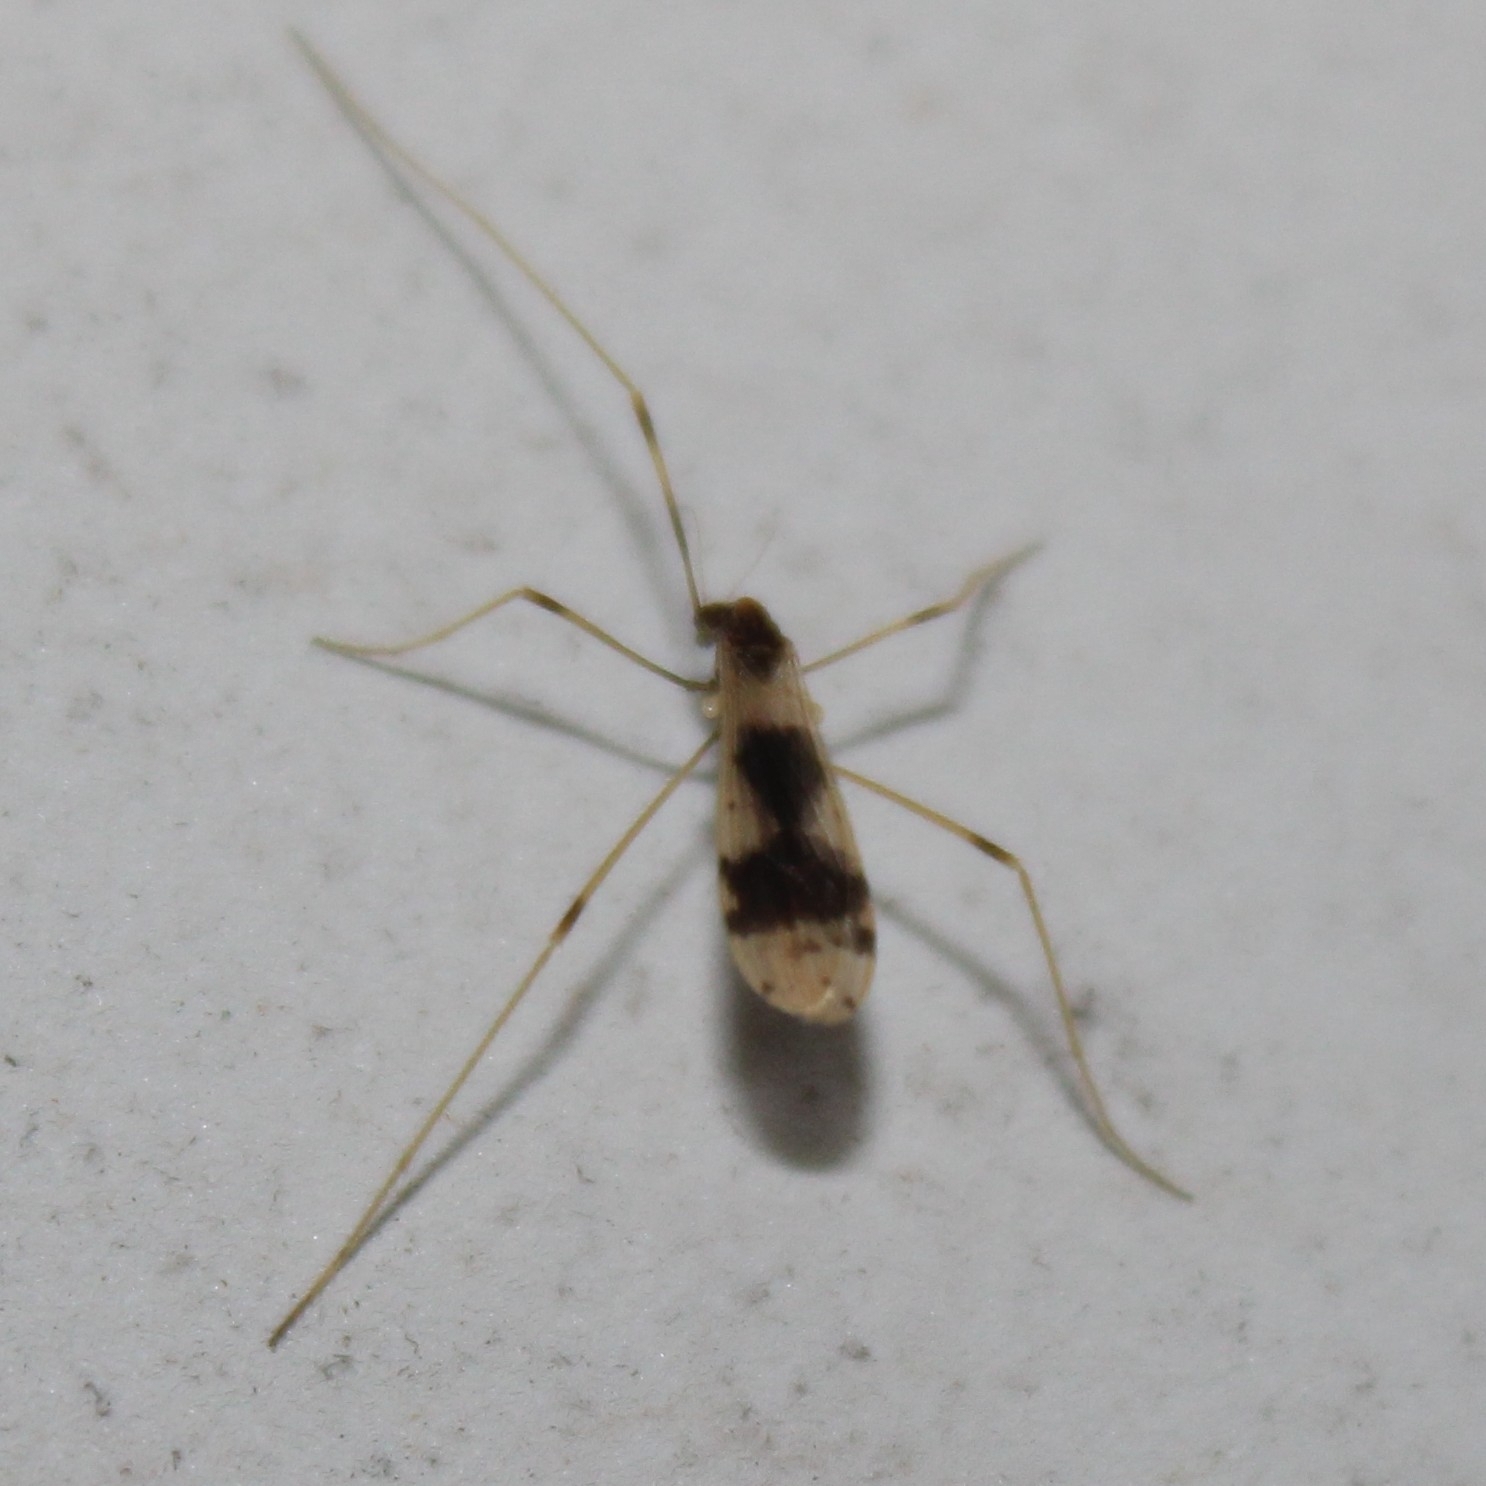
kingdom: Animalia
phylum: Arthropoda
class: Insecta
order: Diptera
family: Limoniidae
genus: Ilisia
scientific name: Ilisia venusta
